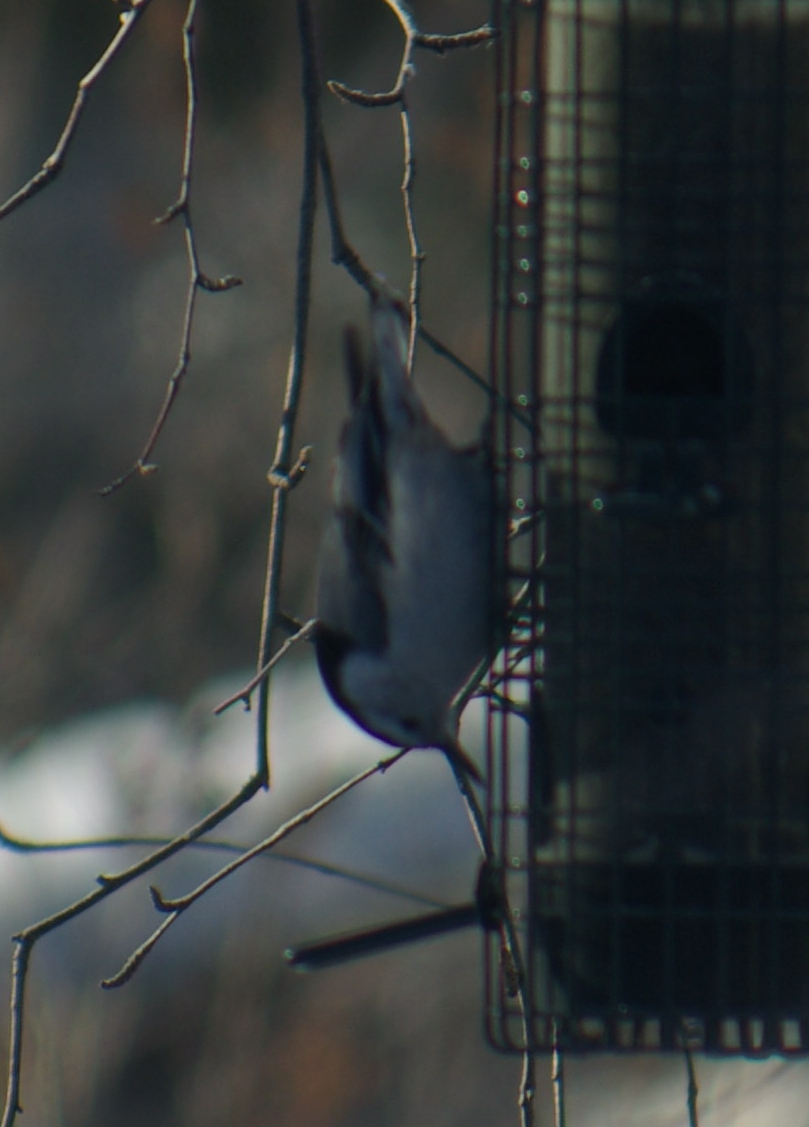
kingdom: Animalia
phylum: Chordata
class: Aves
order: Passeriformes
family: Sittidae
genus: Sitta
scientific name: Sitta carolinensis
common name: White-breasted nuthatch
